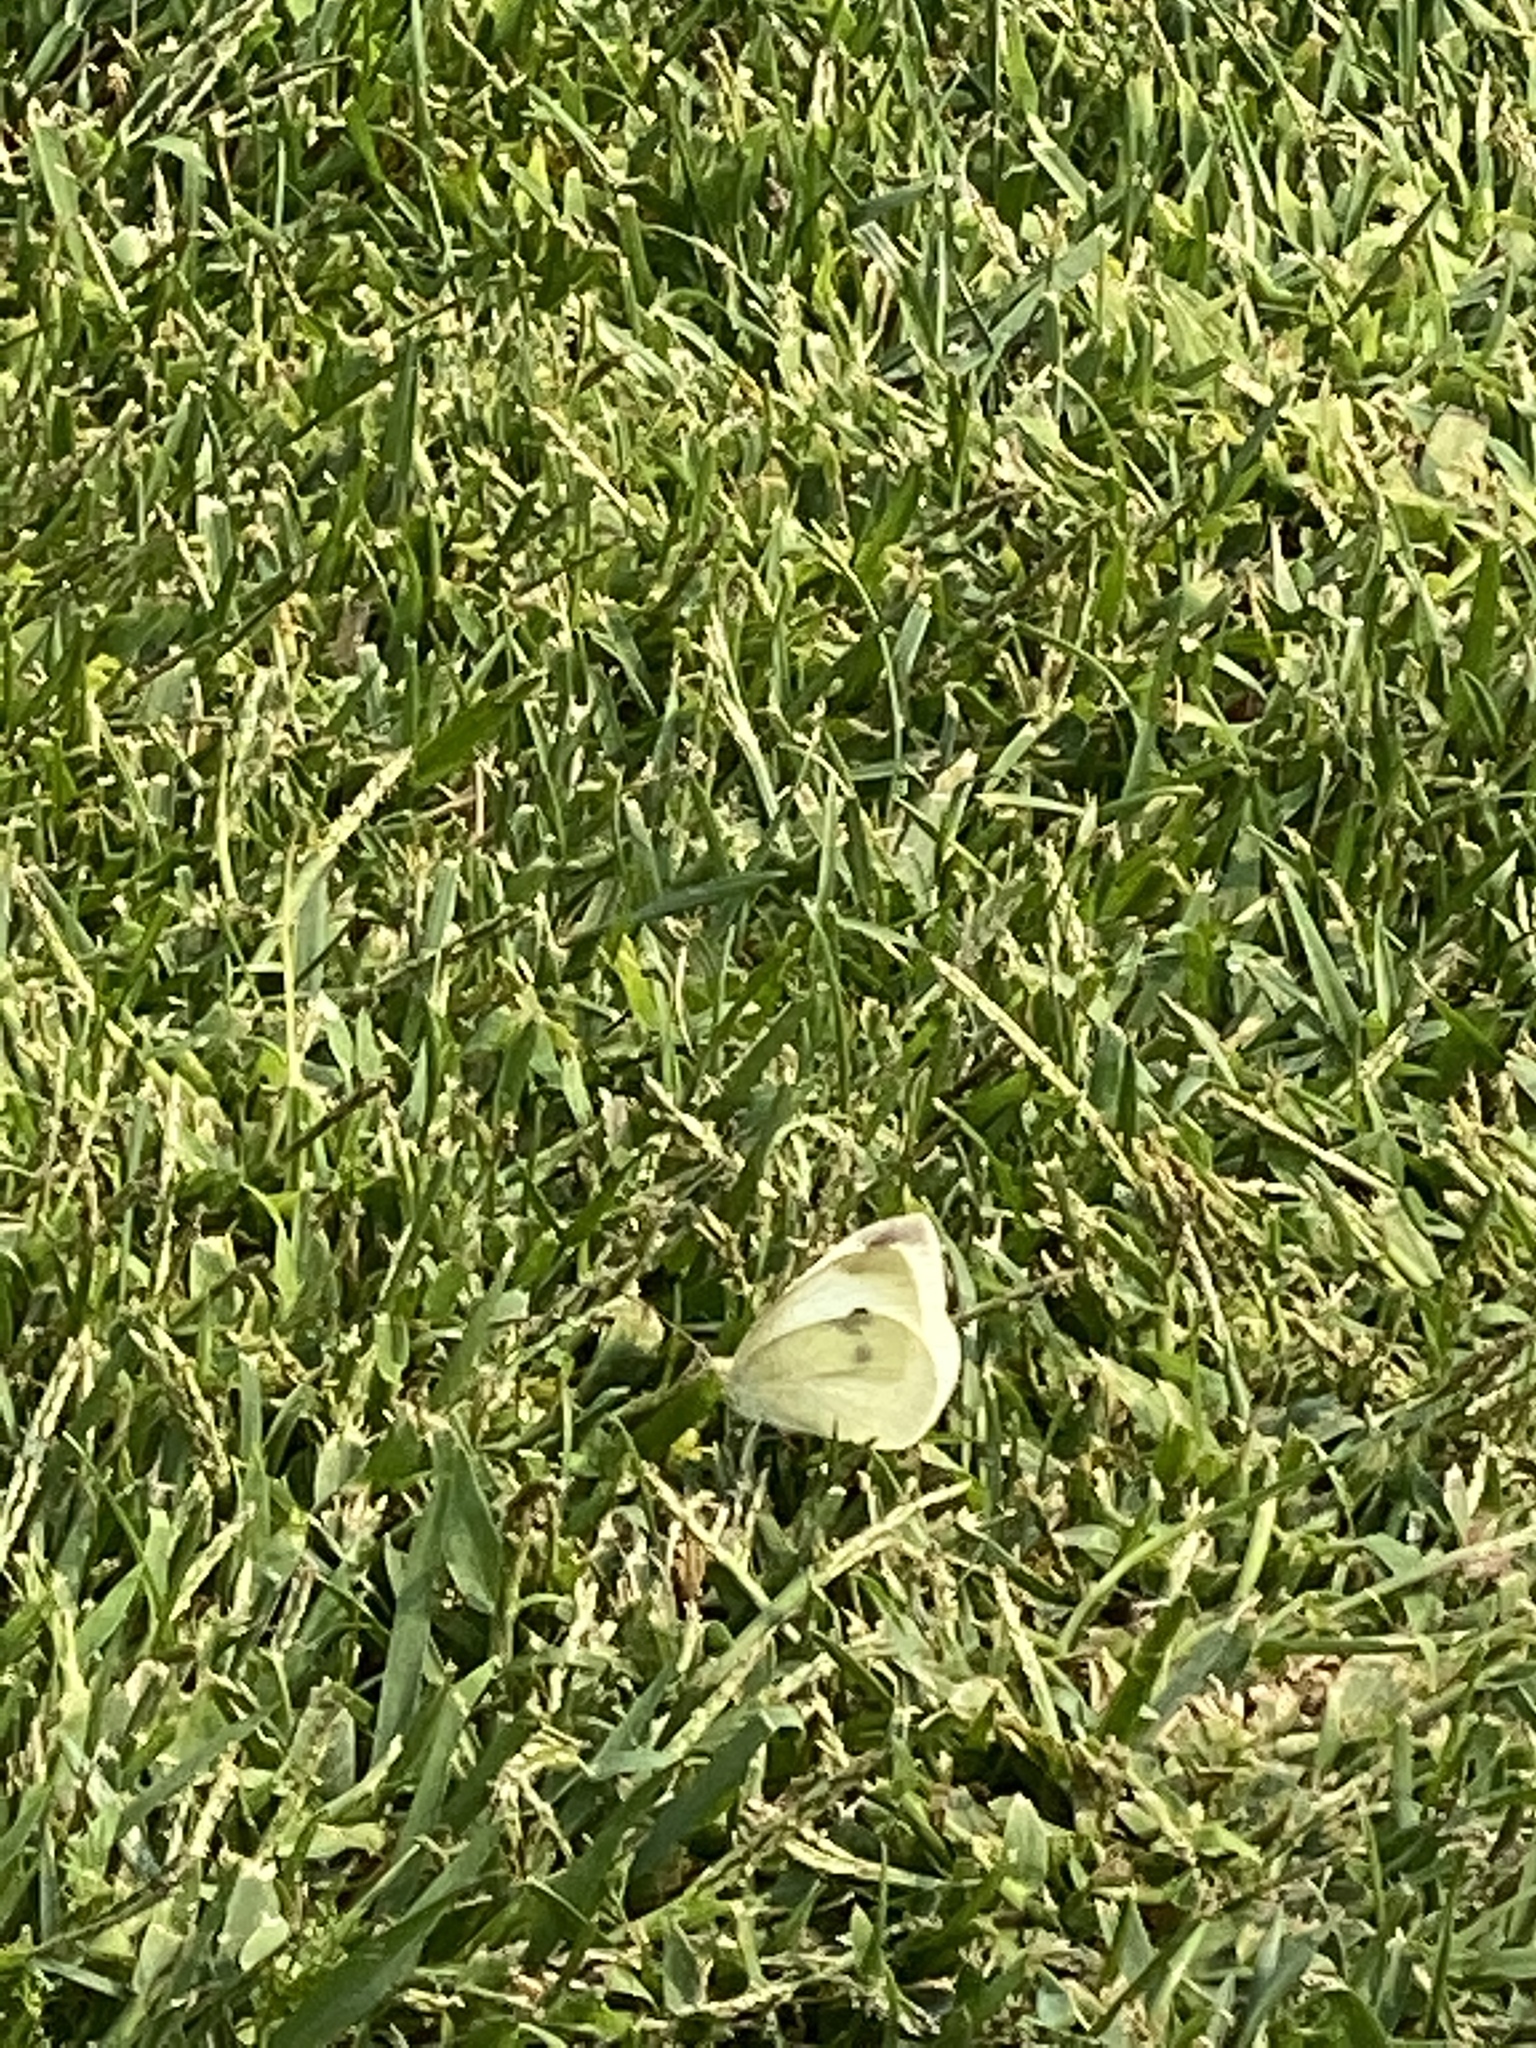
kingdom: Animalia
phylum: Arthropoda
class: Insecta
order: Lepidoptera
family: Pieridae
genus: Pieris
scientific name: Pieris rapae
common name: Small white
